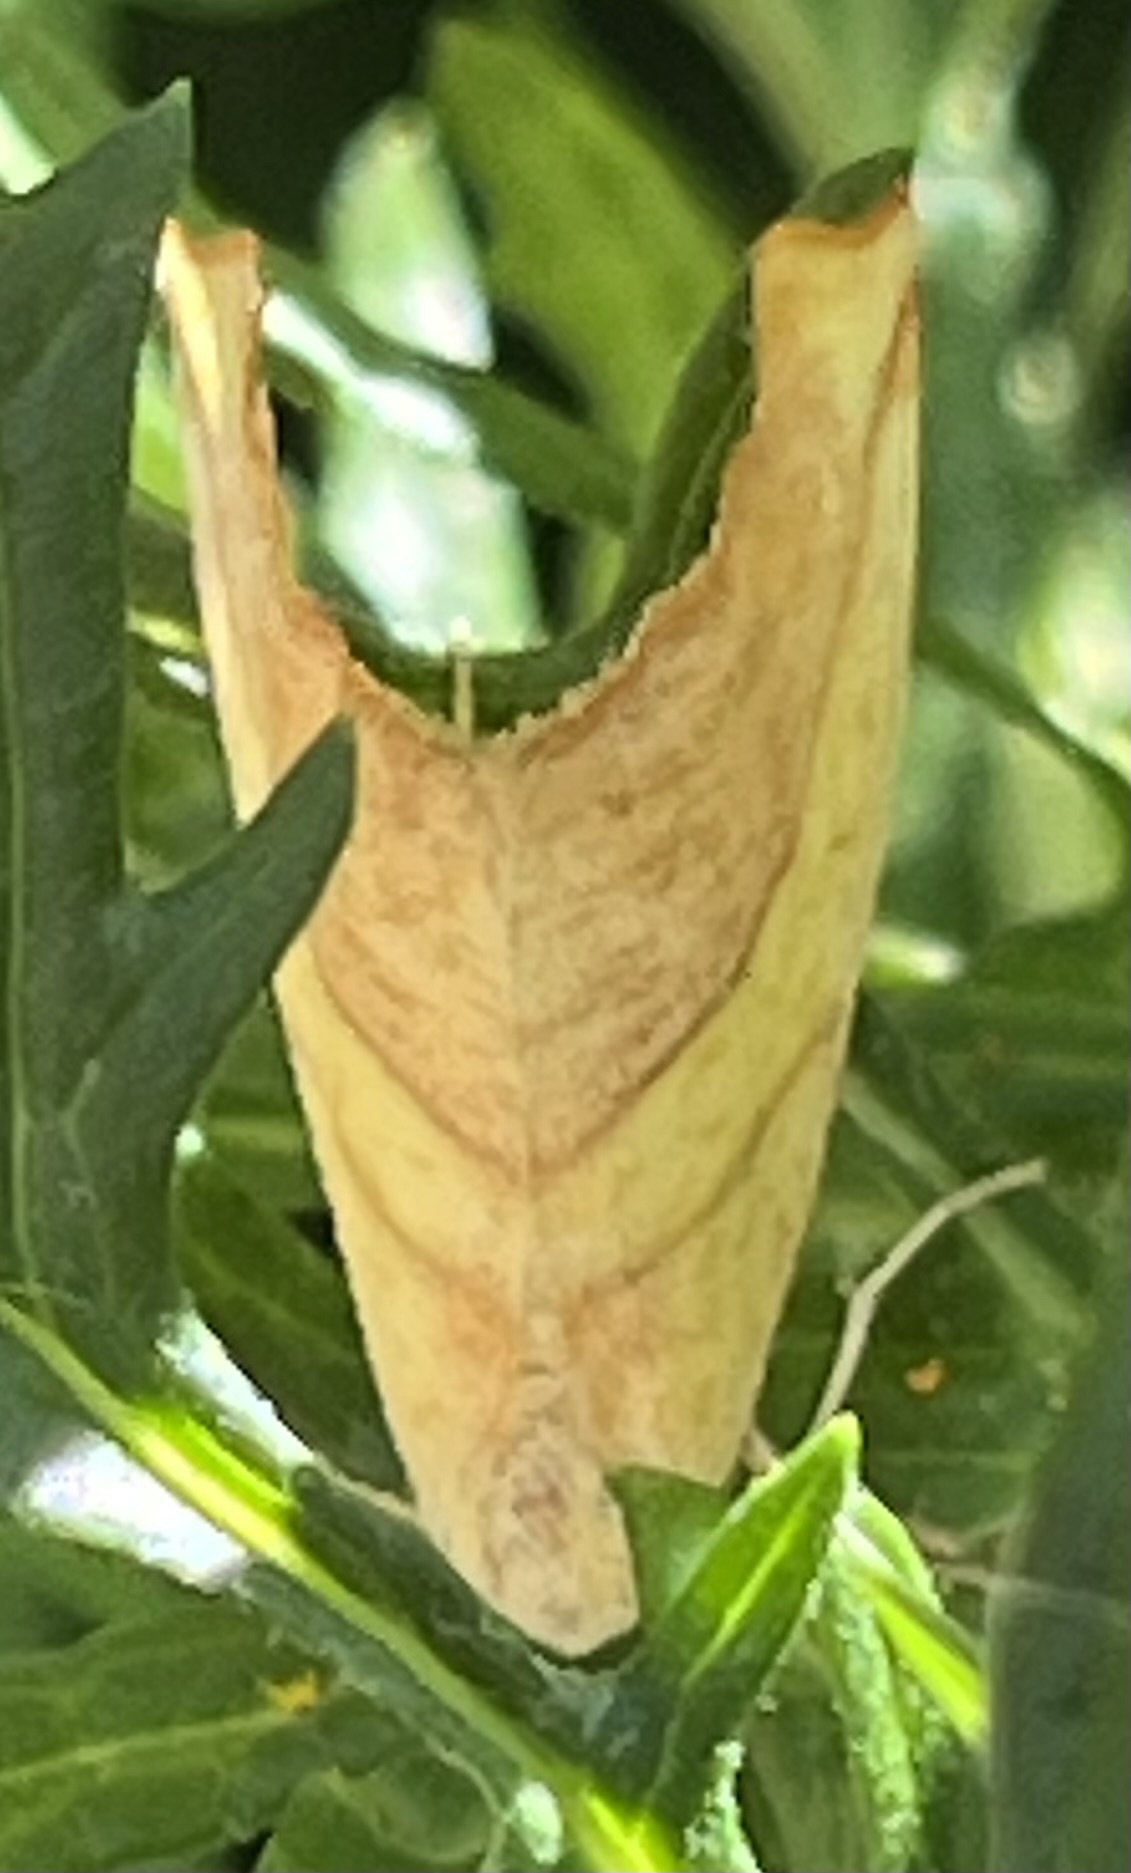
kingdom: Animalia
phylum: Arthropoda
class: Insecta
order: Lepidoptera
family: Geometridae
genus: Sicya
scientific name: Sicya macularia
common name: Sharp-lined yellow
